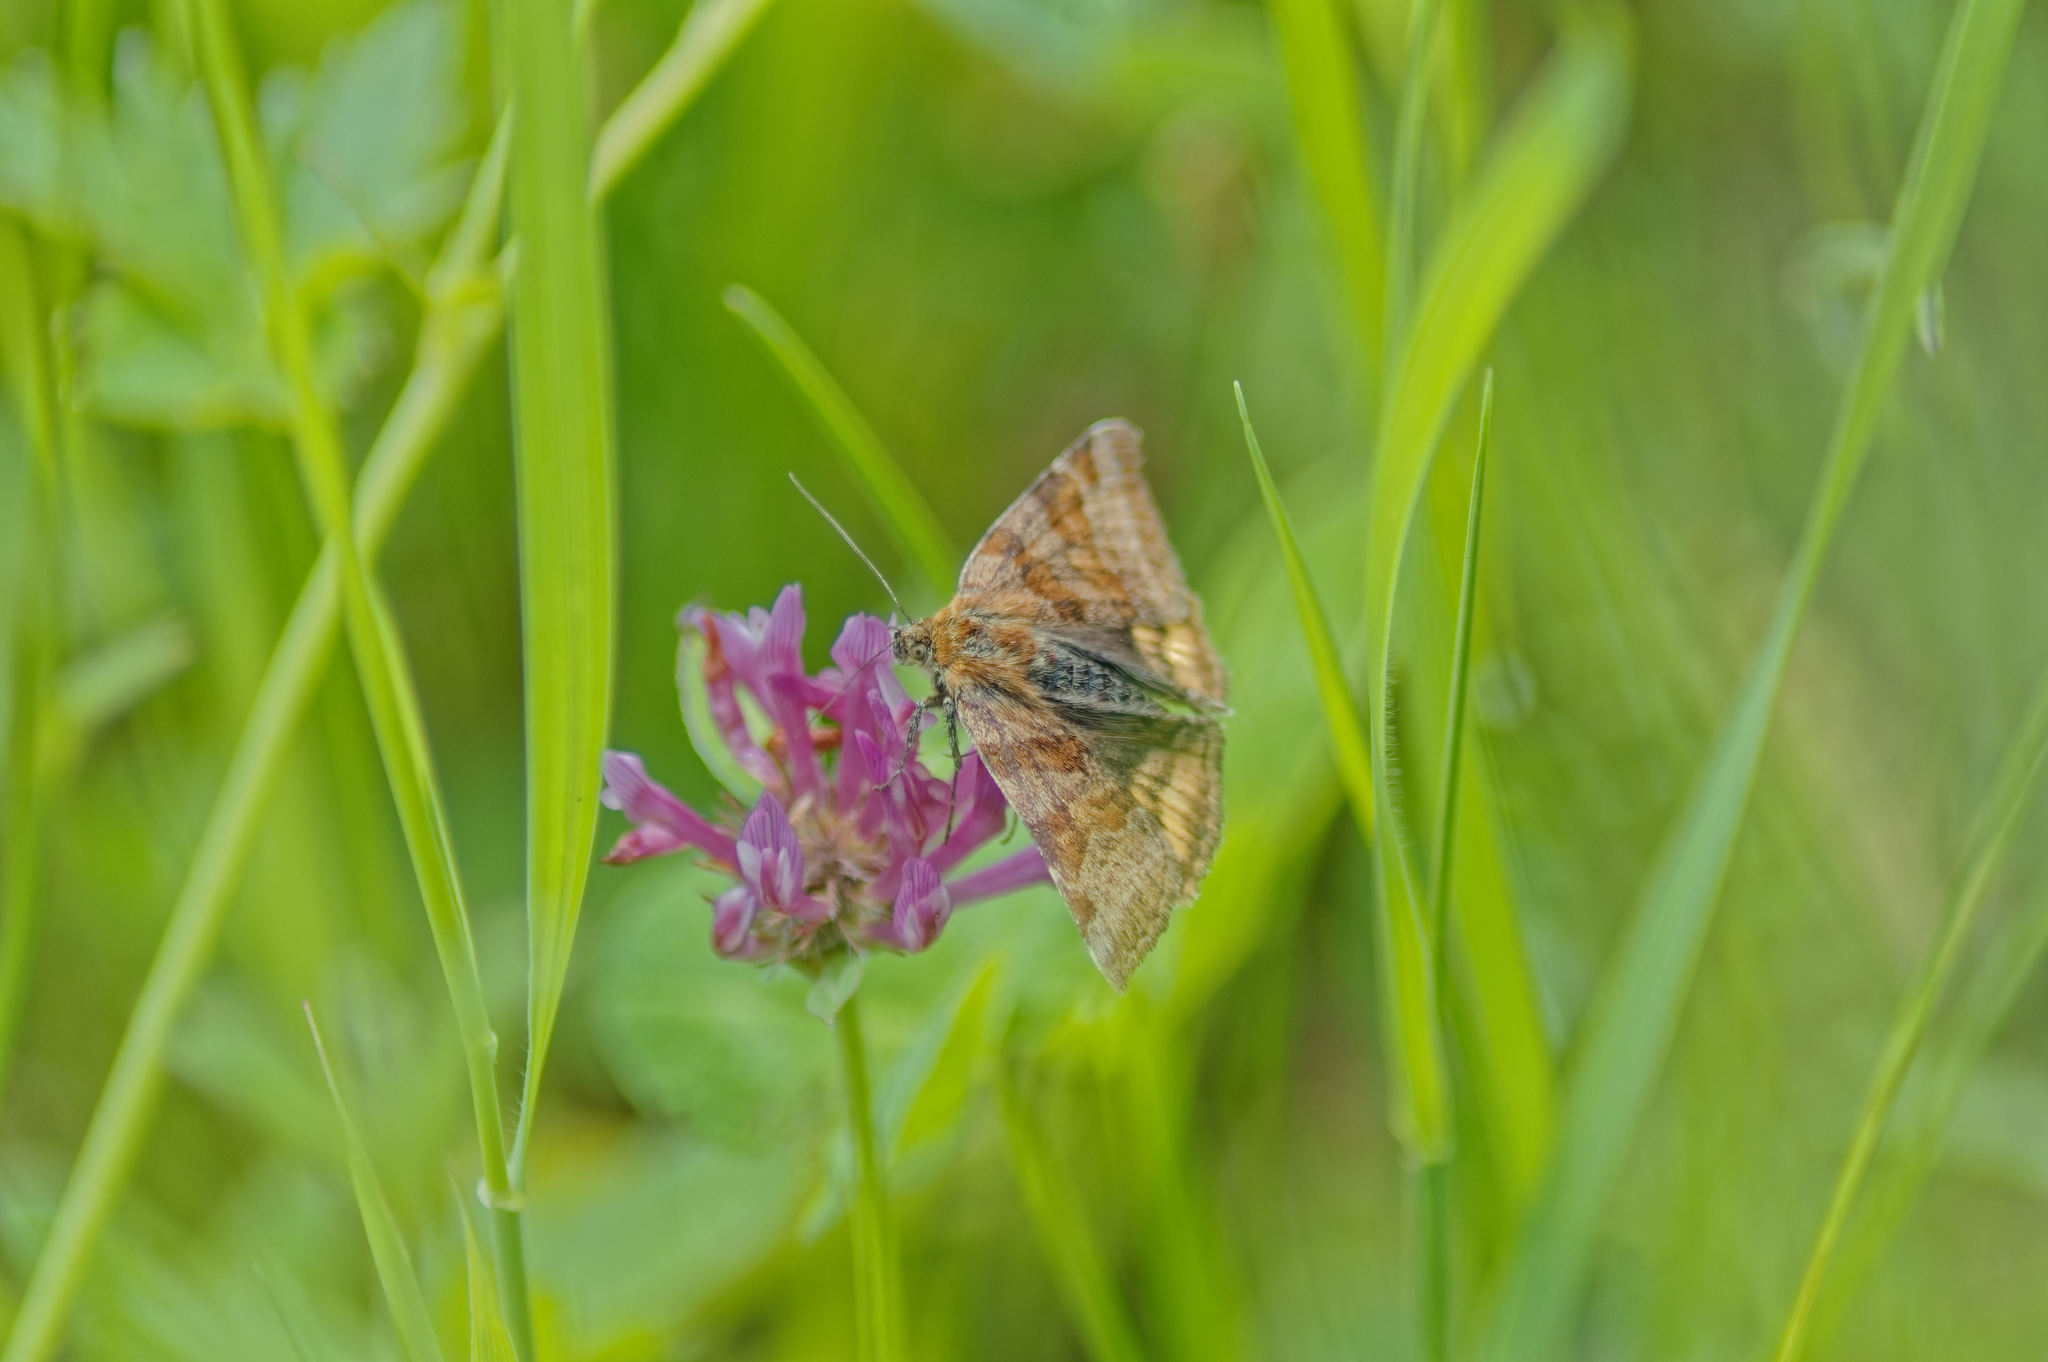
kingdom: Animalia
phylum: Arthropoda
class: Insecta
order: Lepidoptera
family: Erebidae
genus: Euclidia
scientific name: Euclidia glyphica
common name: Burnet companion
